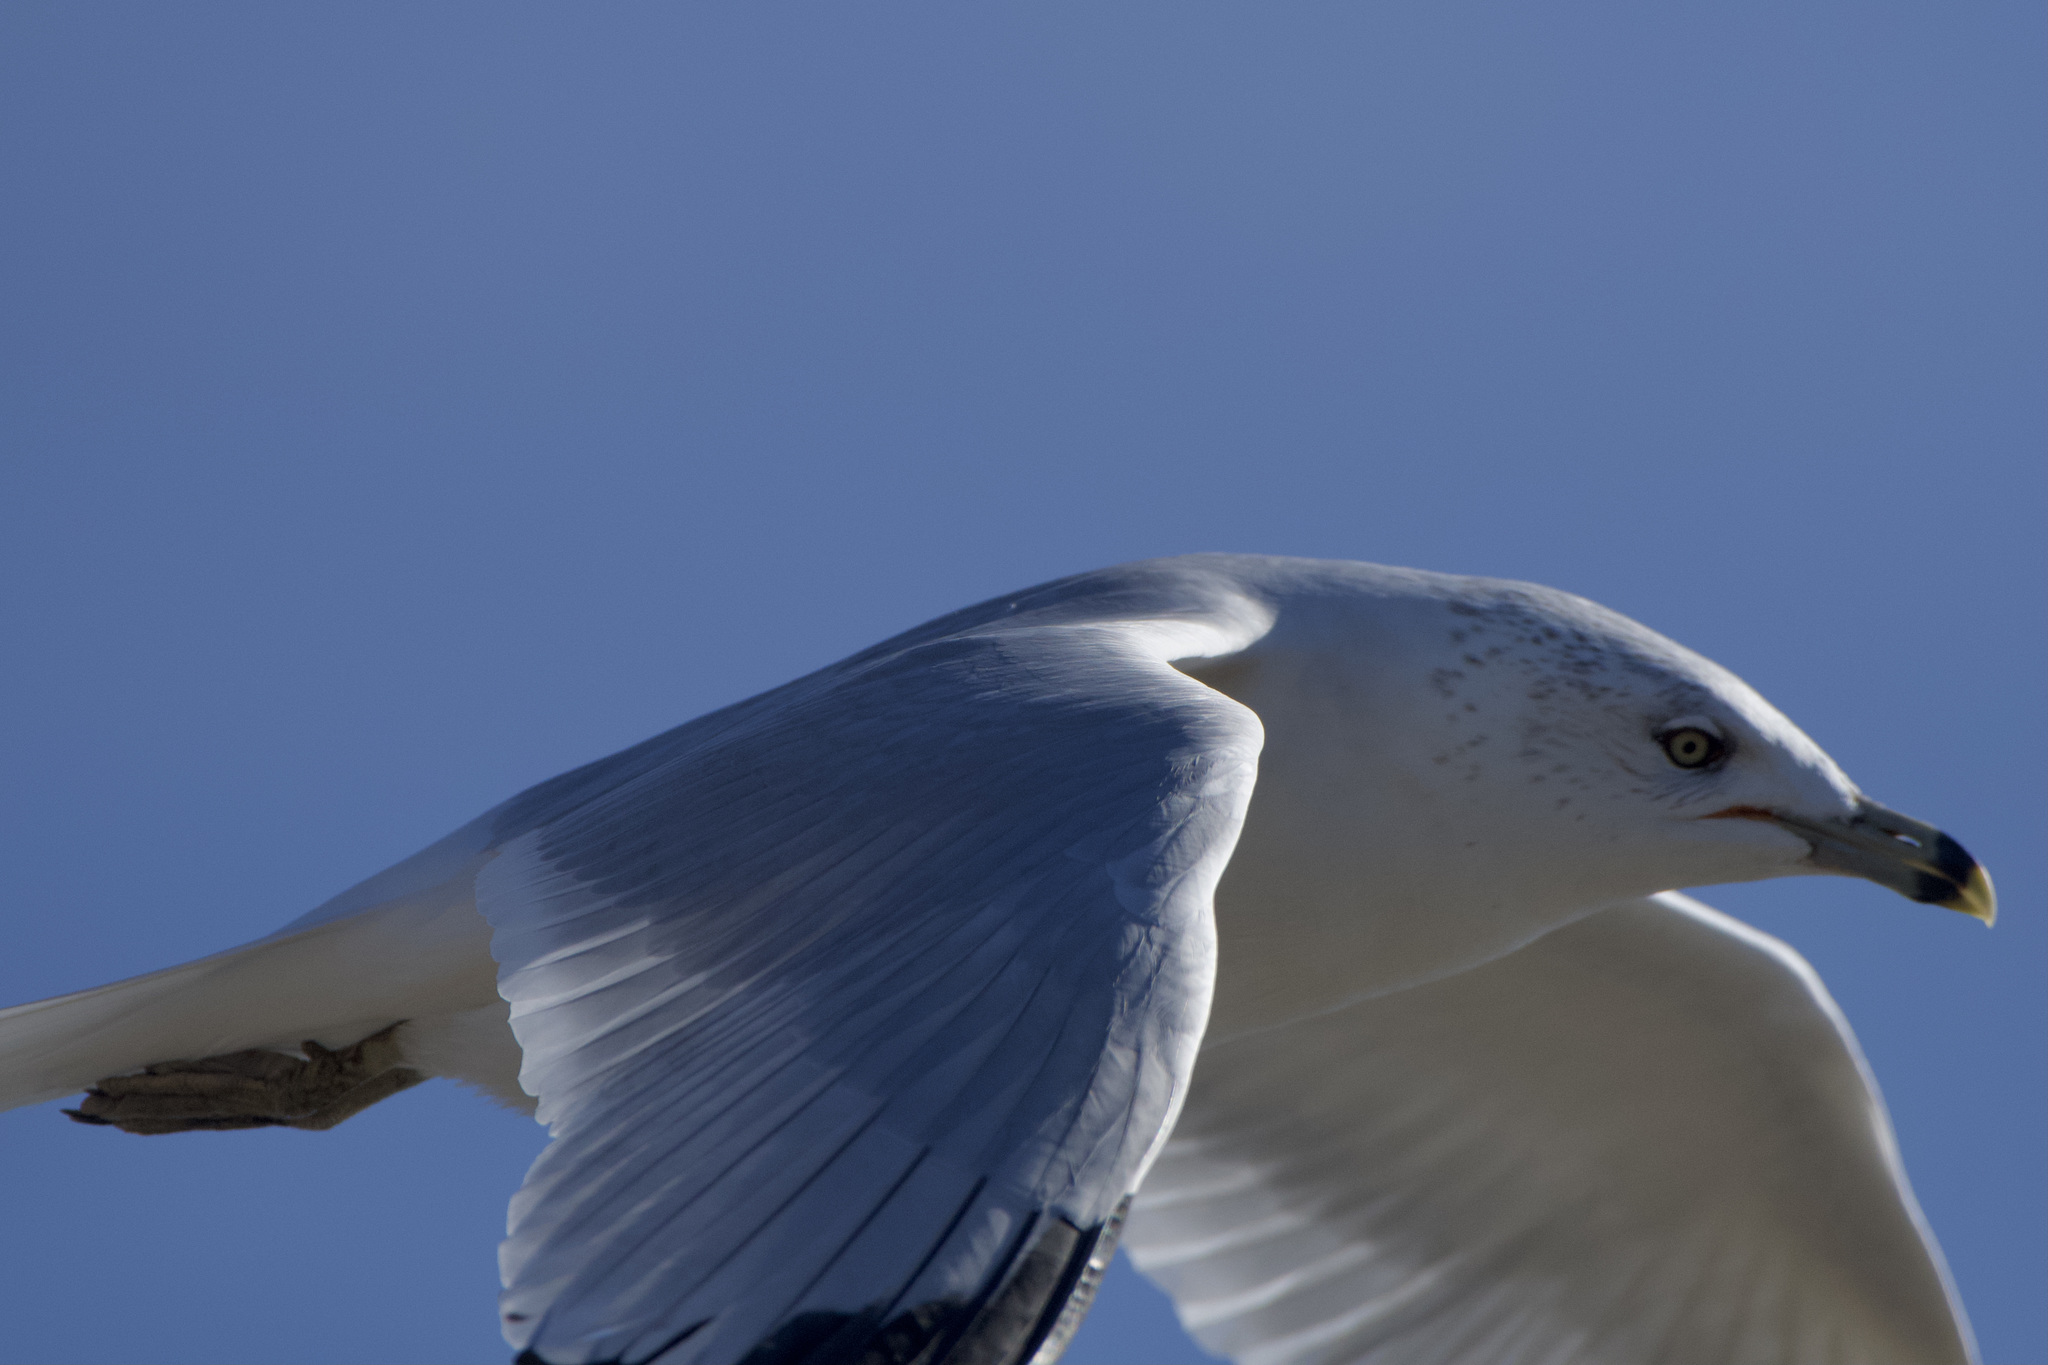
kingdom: Animalia
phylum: Chordata
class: Aves
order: Charadriiformes
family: Laridae
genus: Larus
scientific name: Larus delawarensis
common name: Ring-billed gull
